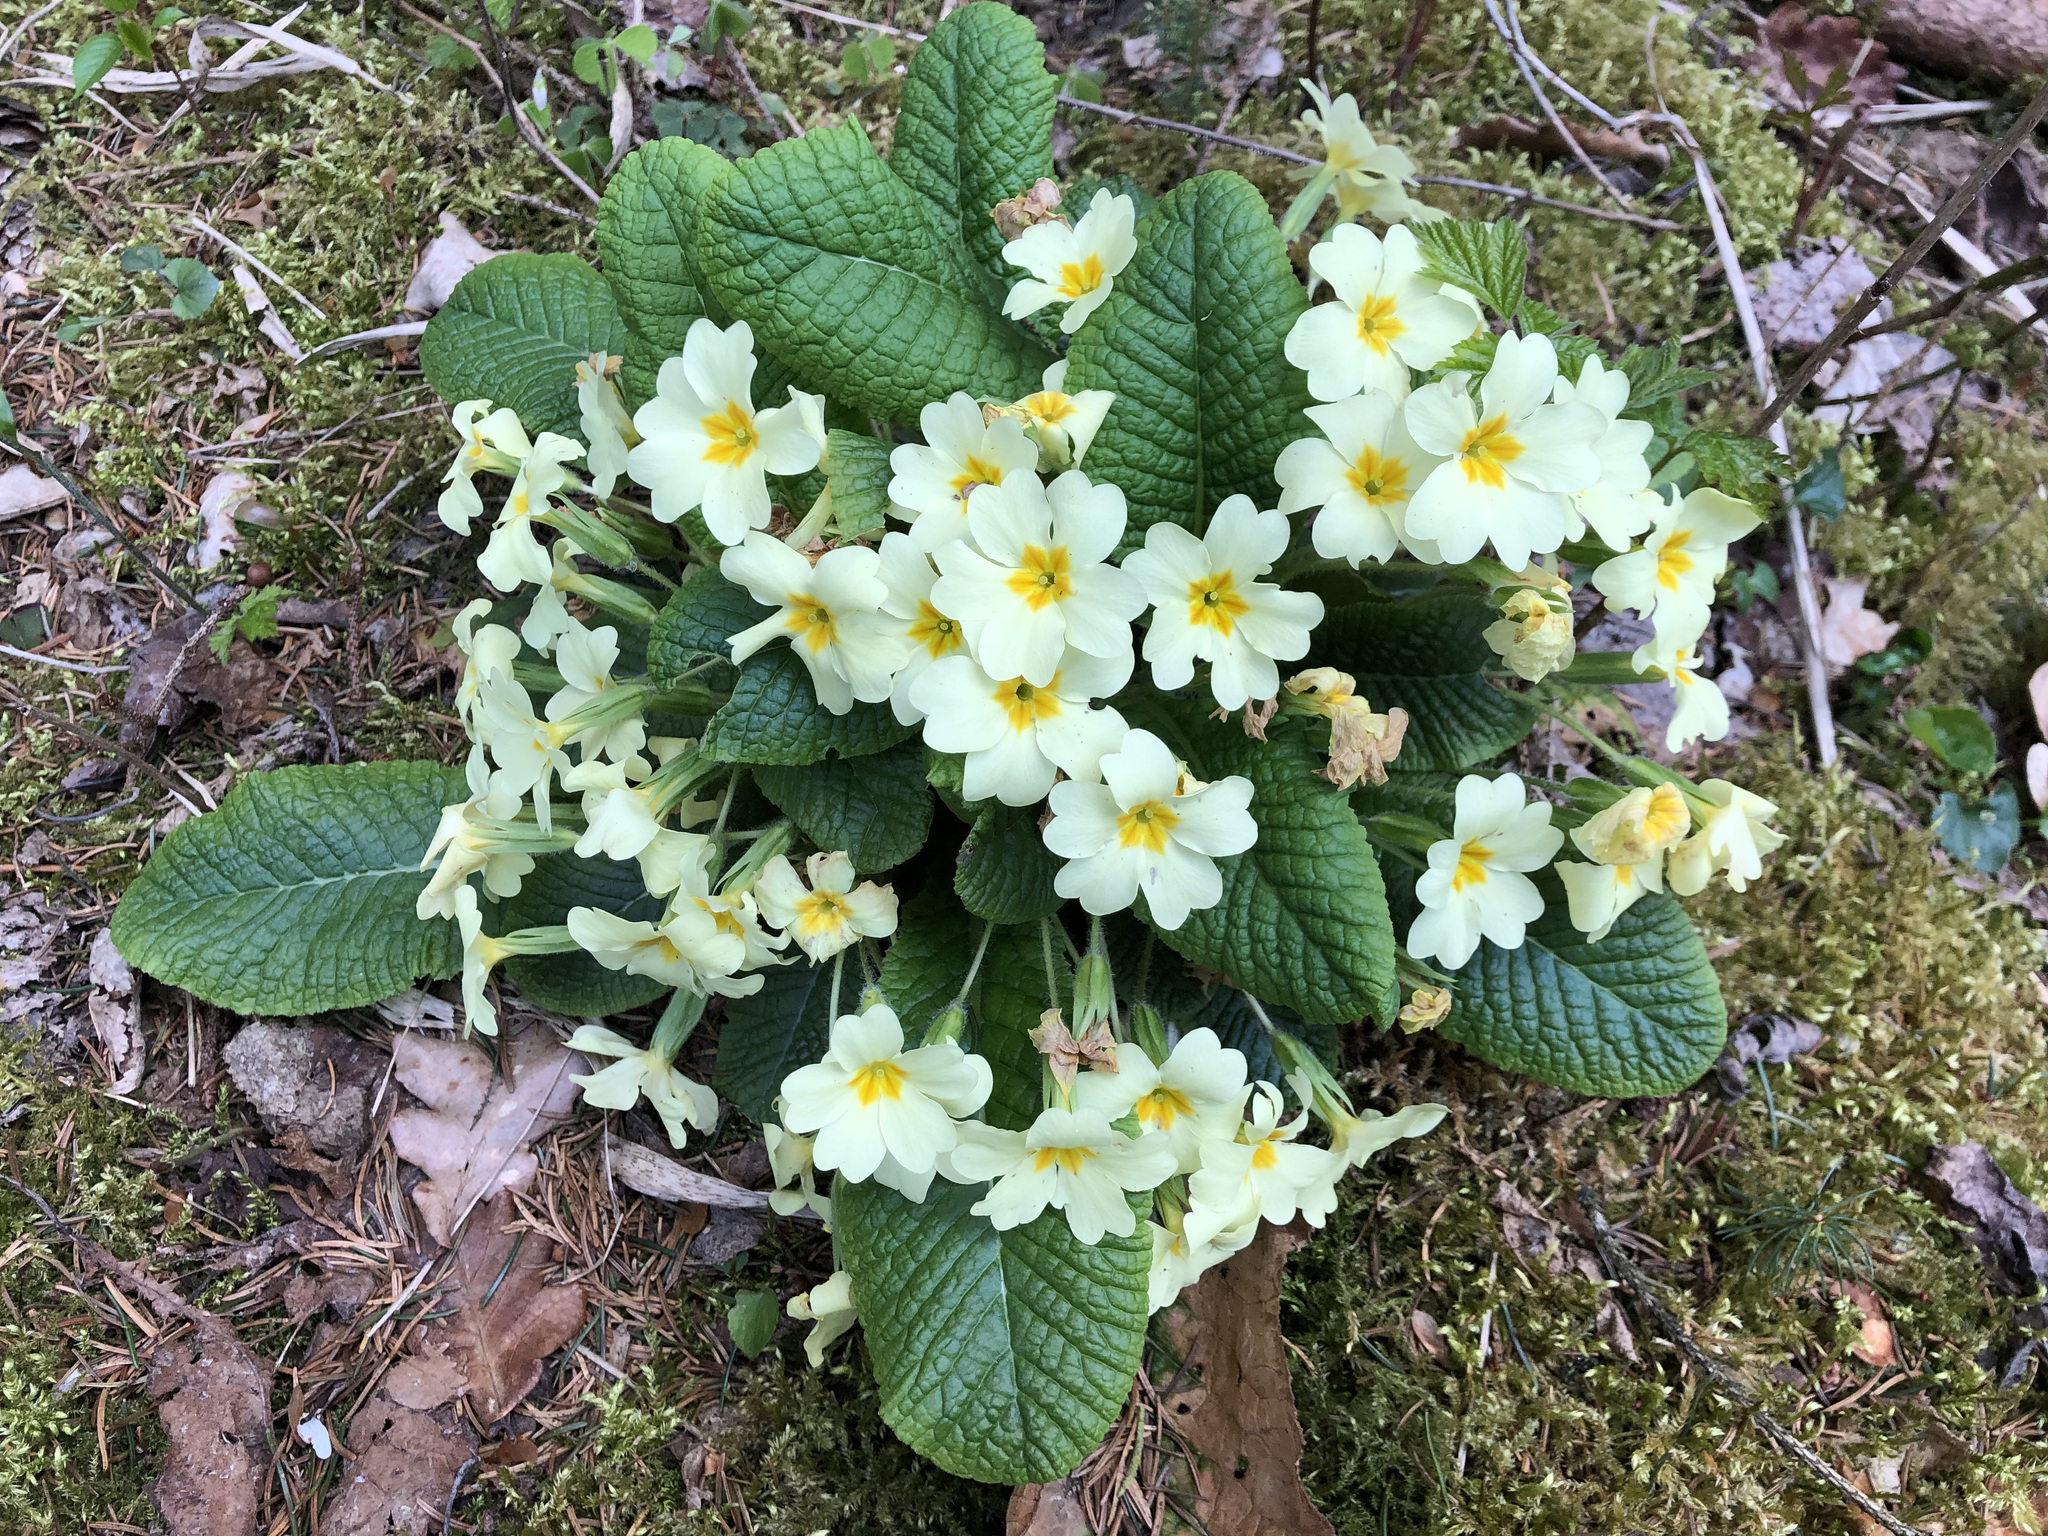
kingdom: Plantae
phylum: Tracheophyta
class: Magnoliopsida
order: Ericales
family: Primulaceae
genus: Primula
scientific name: Primula vulgaris
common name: Primrose
